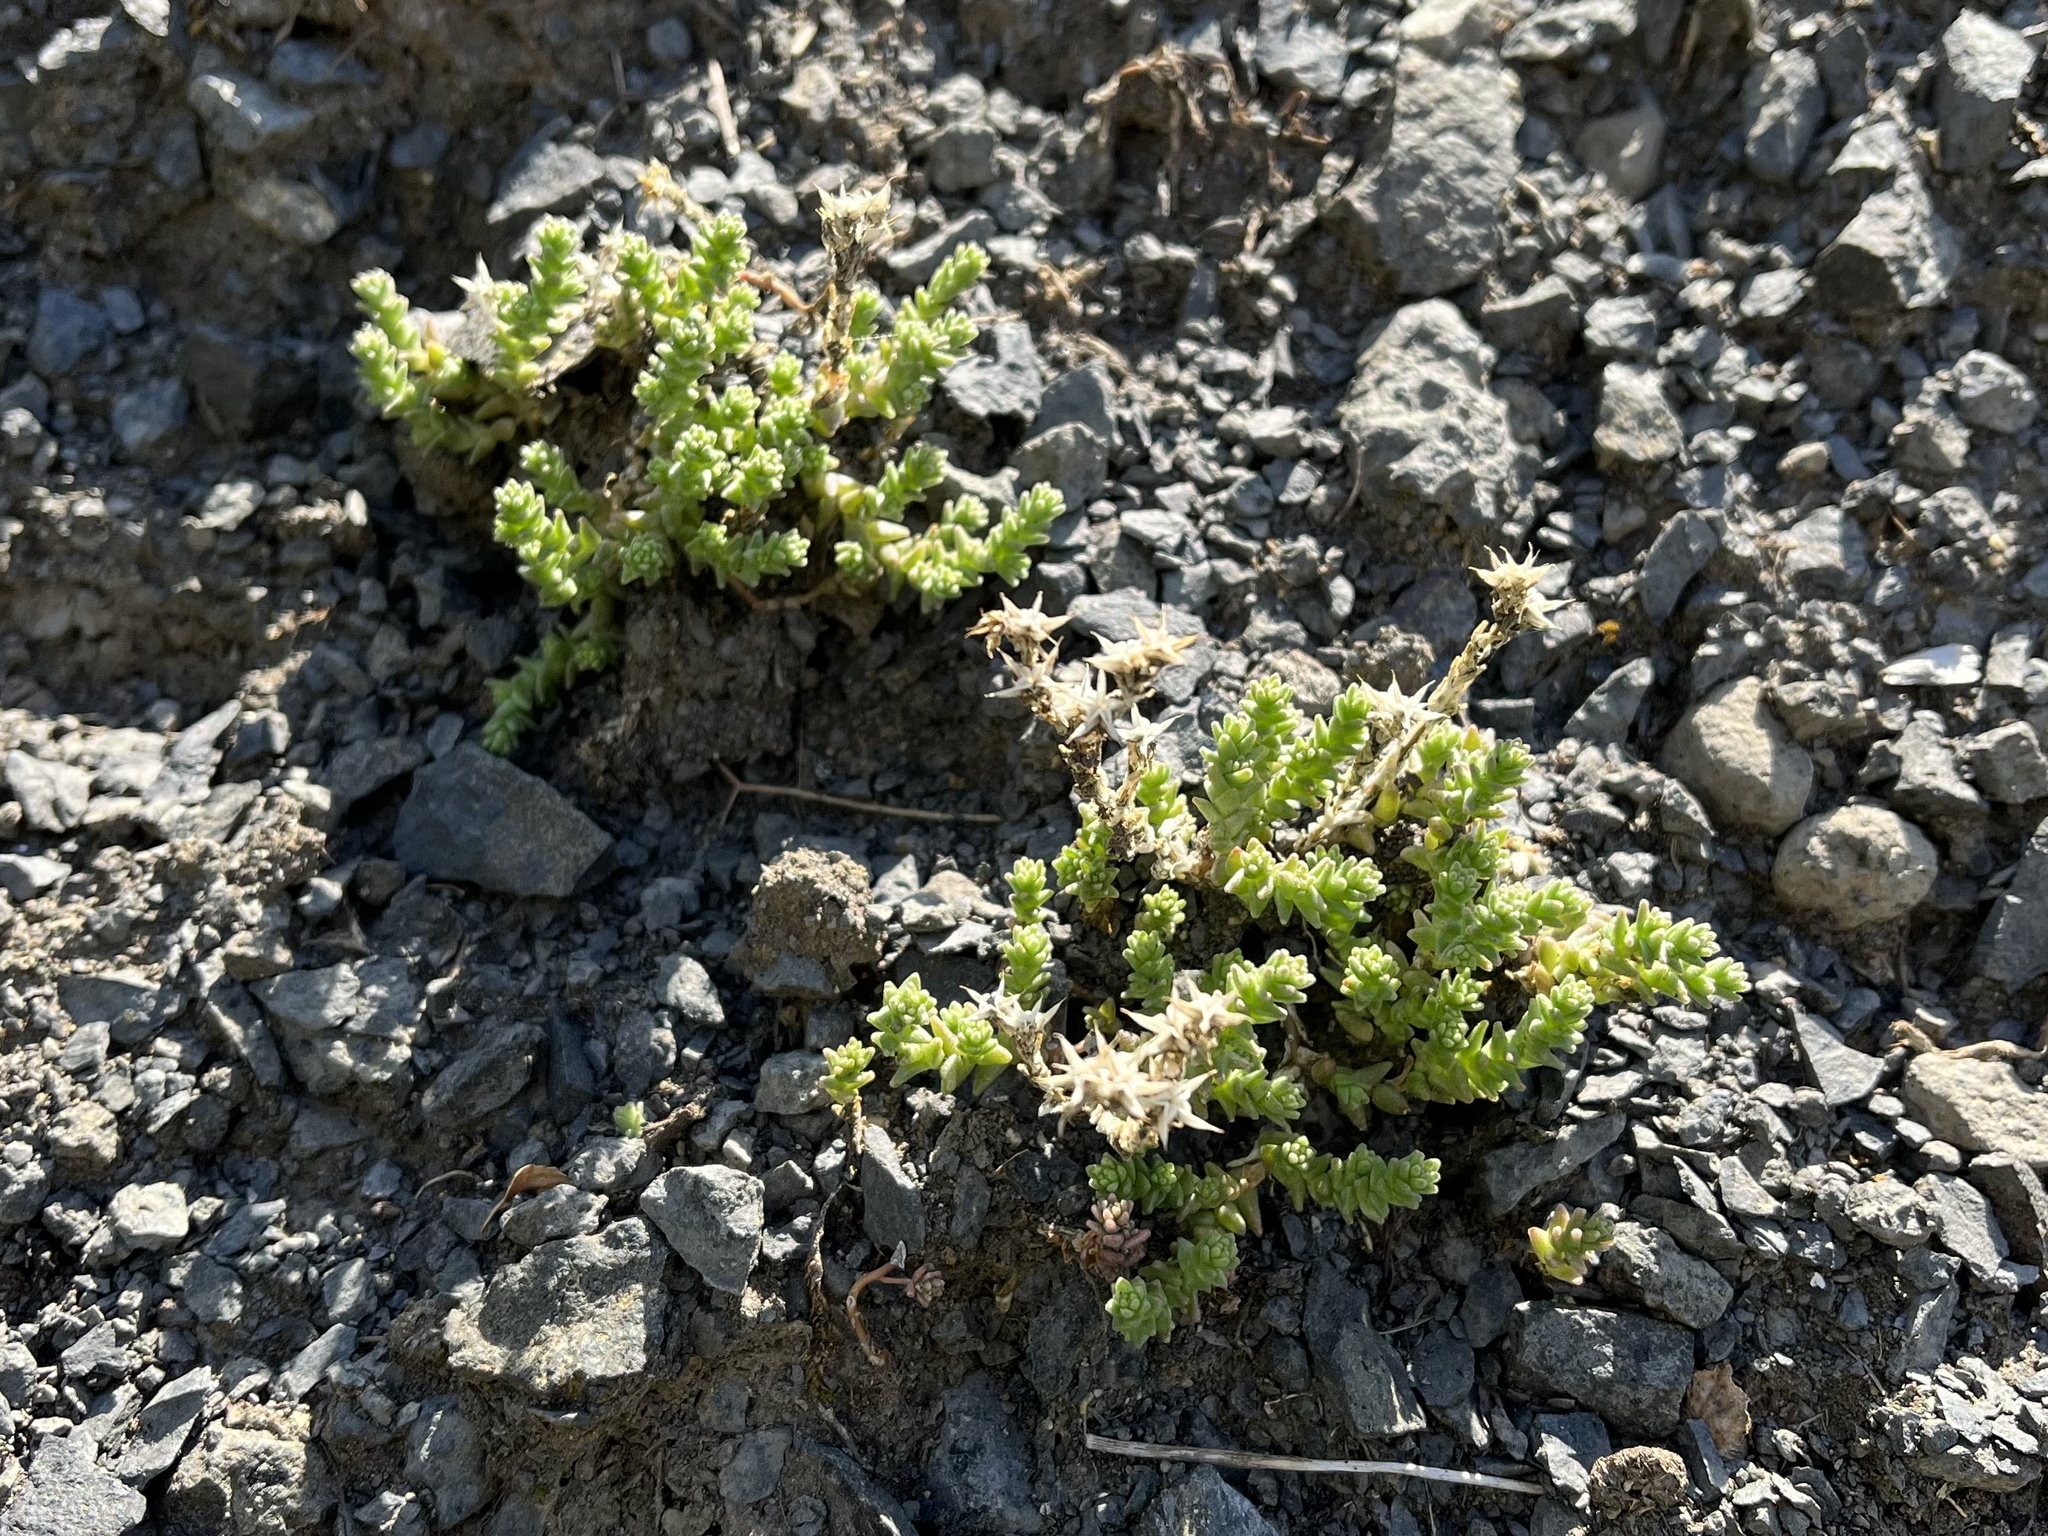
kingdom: Plantae
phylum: Tracheophyta
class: Magnoliopsida
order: Saxifragales
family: Crassulaceae
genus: Sedum
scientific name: Sedum acre
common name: Biting stonecrop
